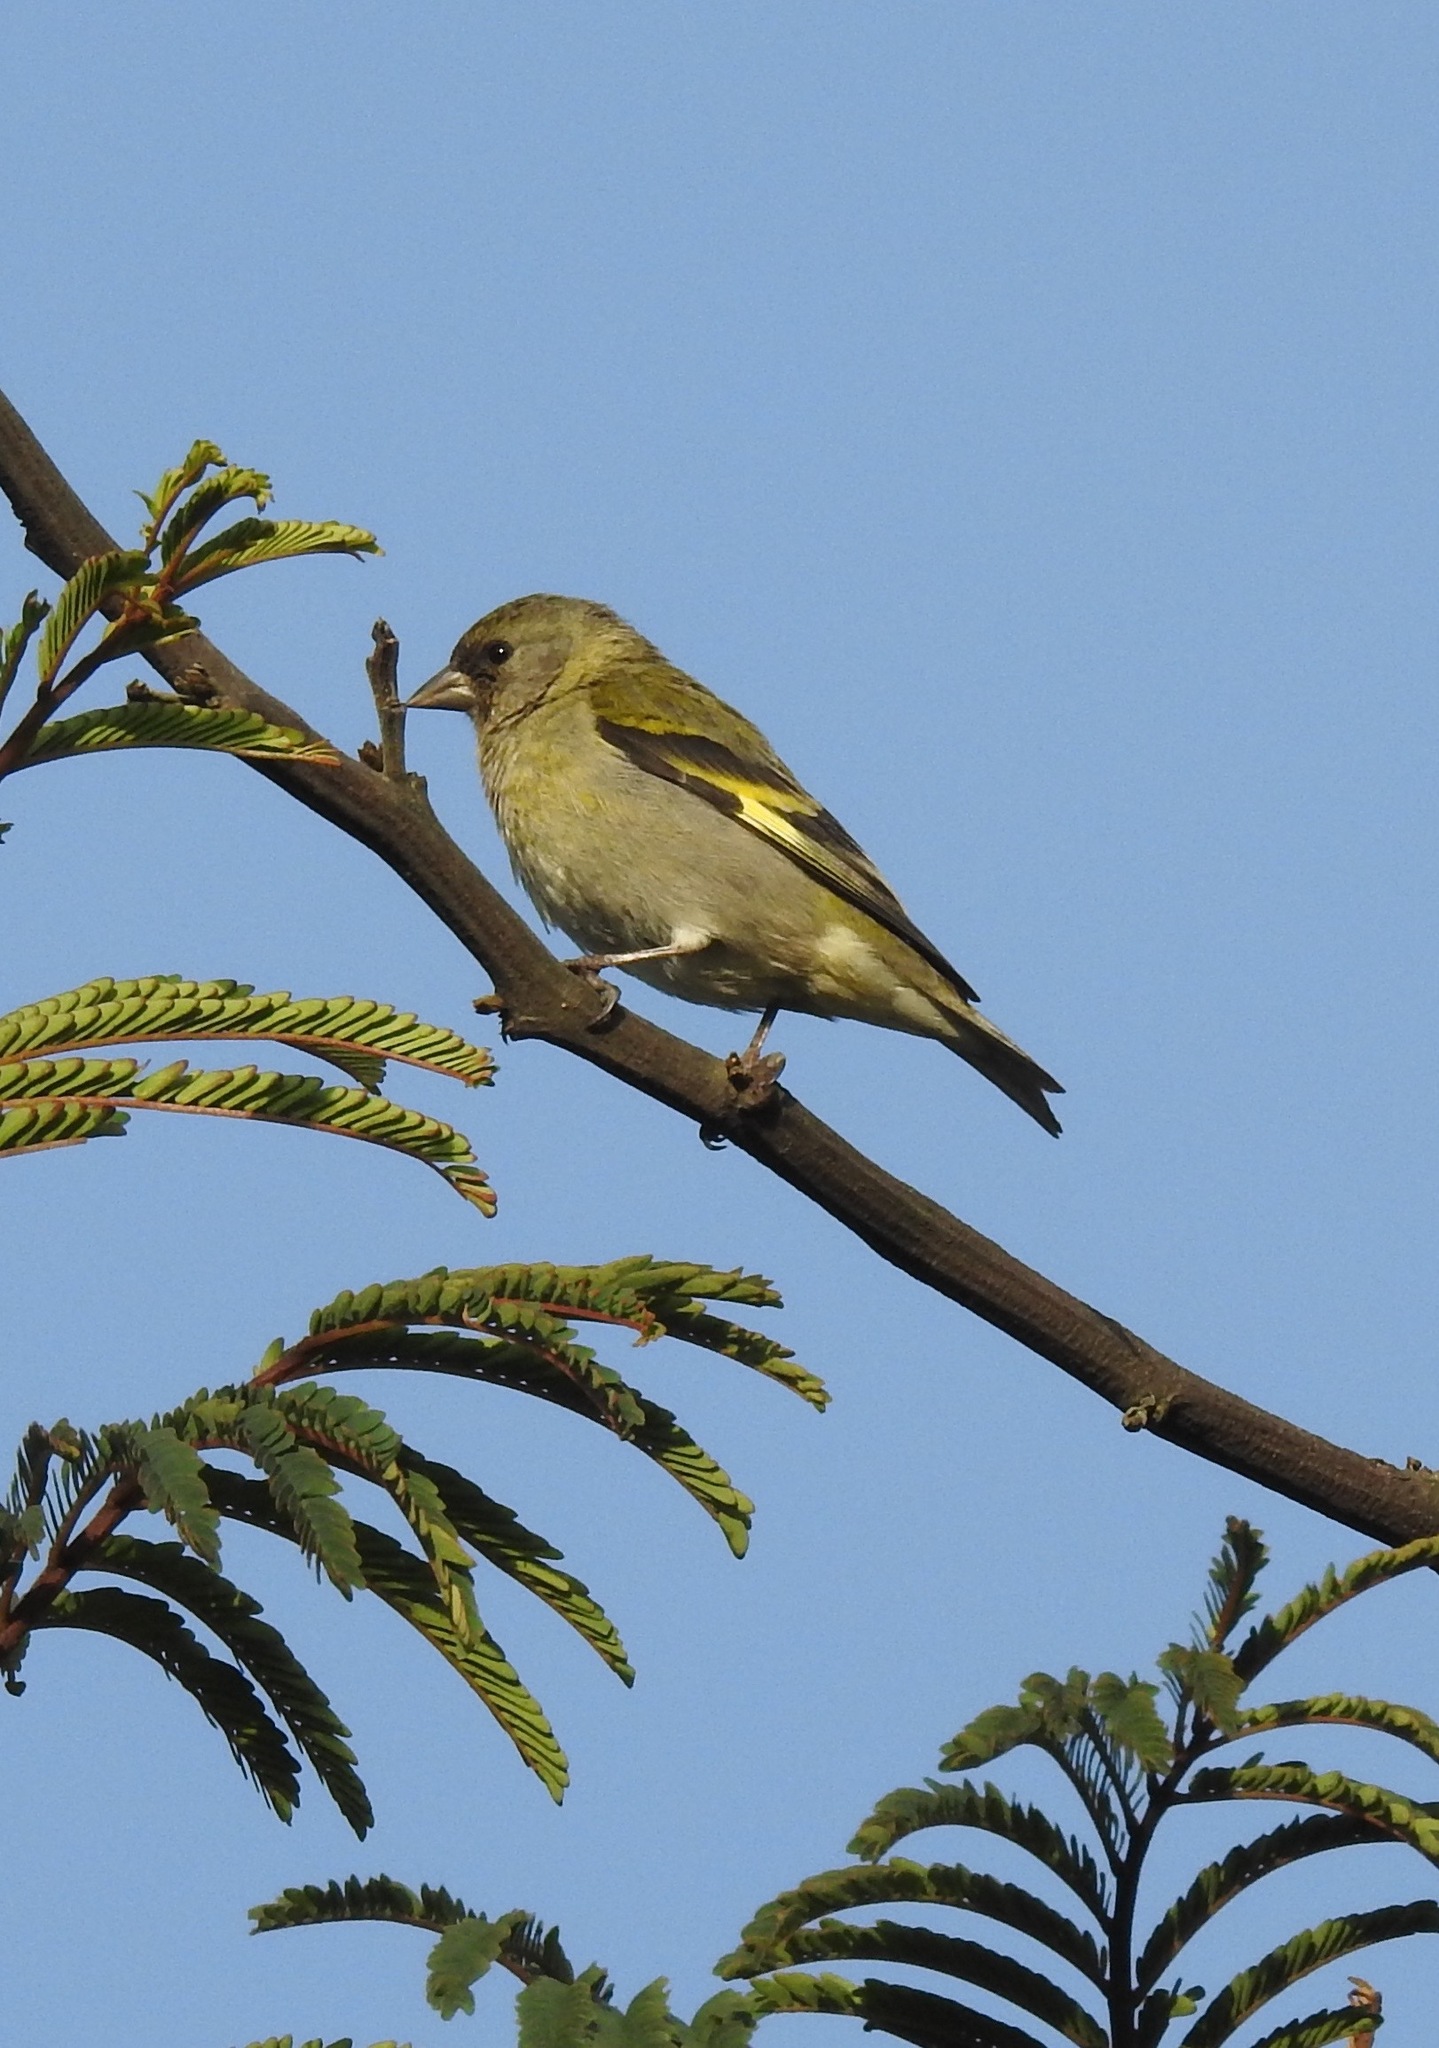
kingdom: Animalia
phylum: Chordata
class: Aves
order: Passeriformes
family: Fringillidae
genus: Spinus
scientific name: Spinus magellanicus
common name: Hooded siskin
